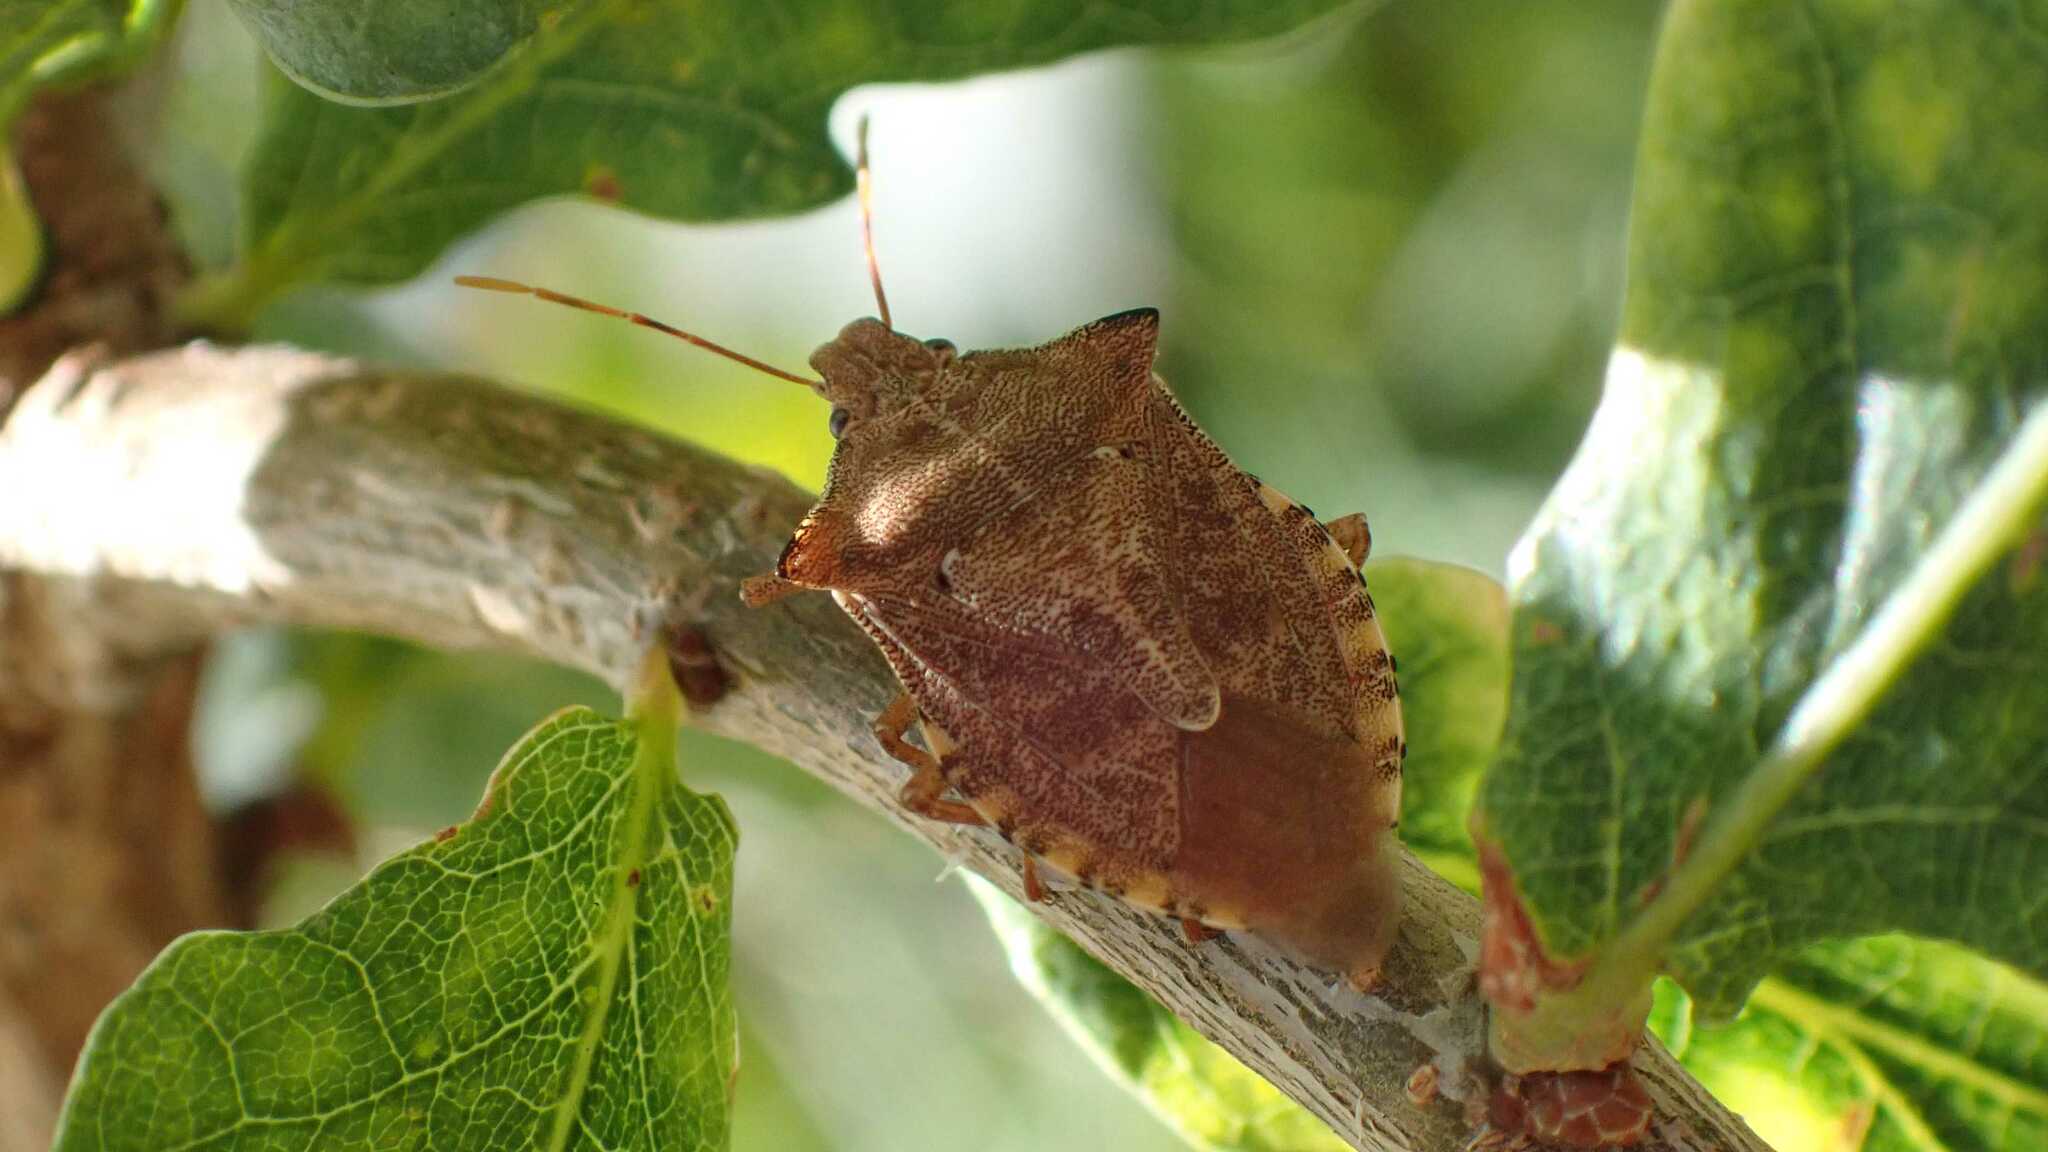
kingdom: Animalia
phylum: Arthropoda
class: Insecta
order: Hemiptera
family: Pentatomidae
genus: Arma
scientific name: Arma custos
